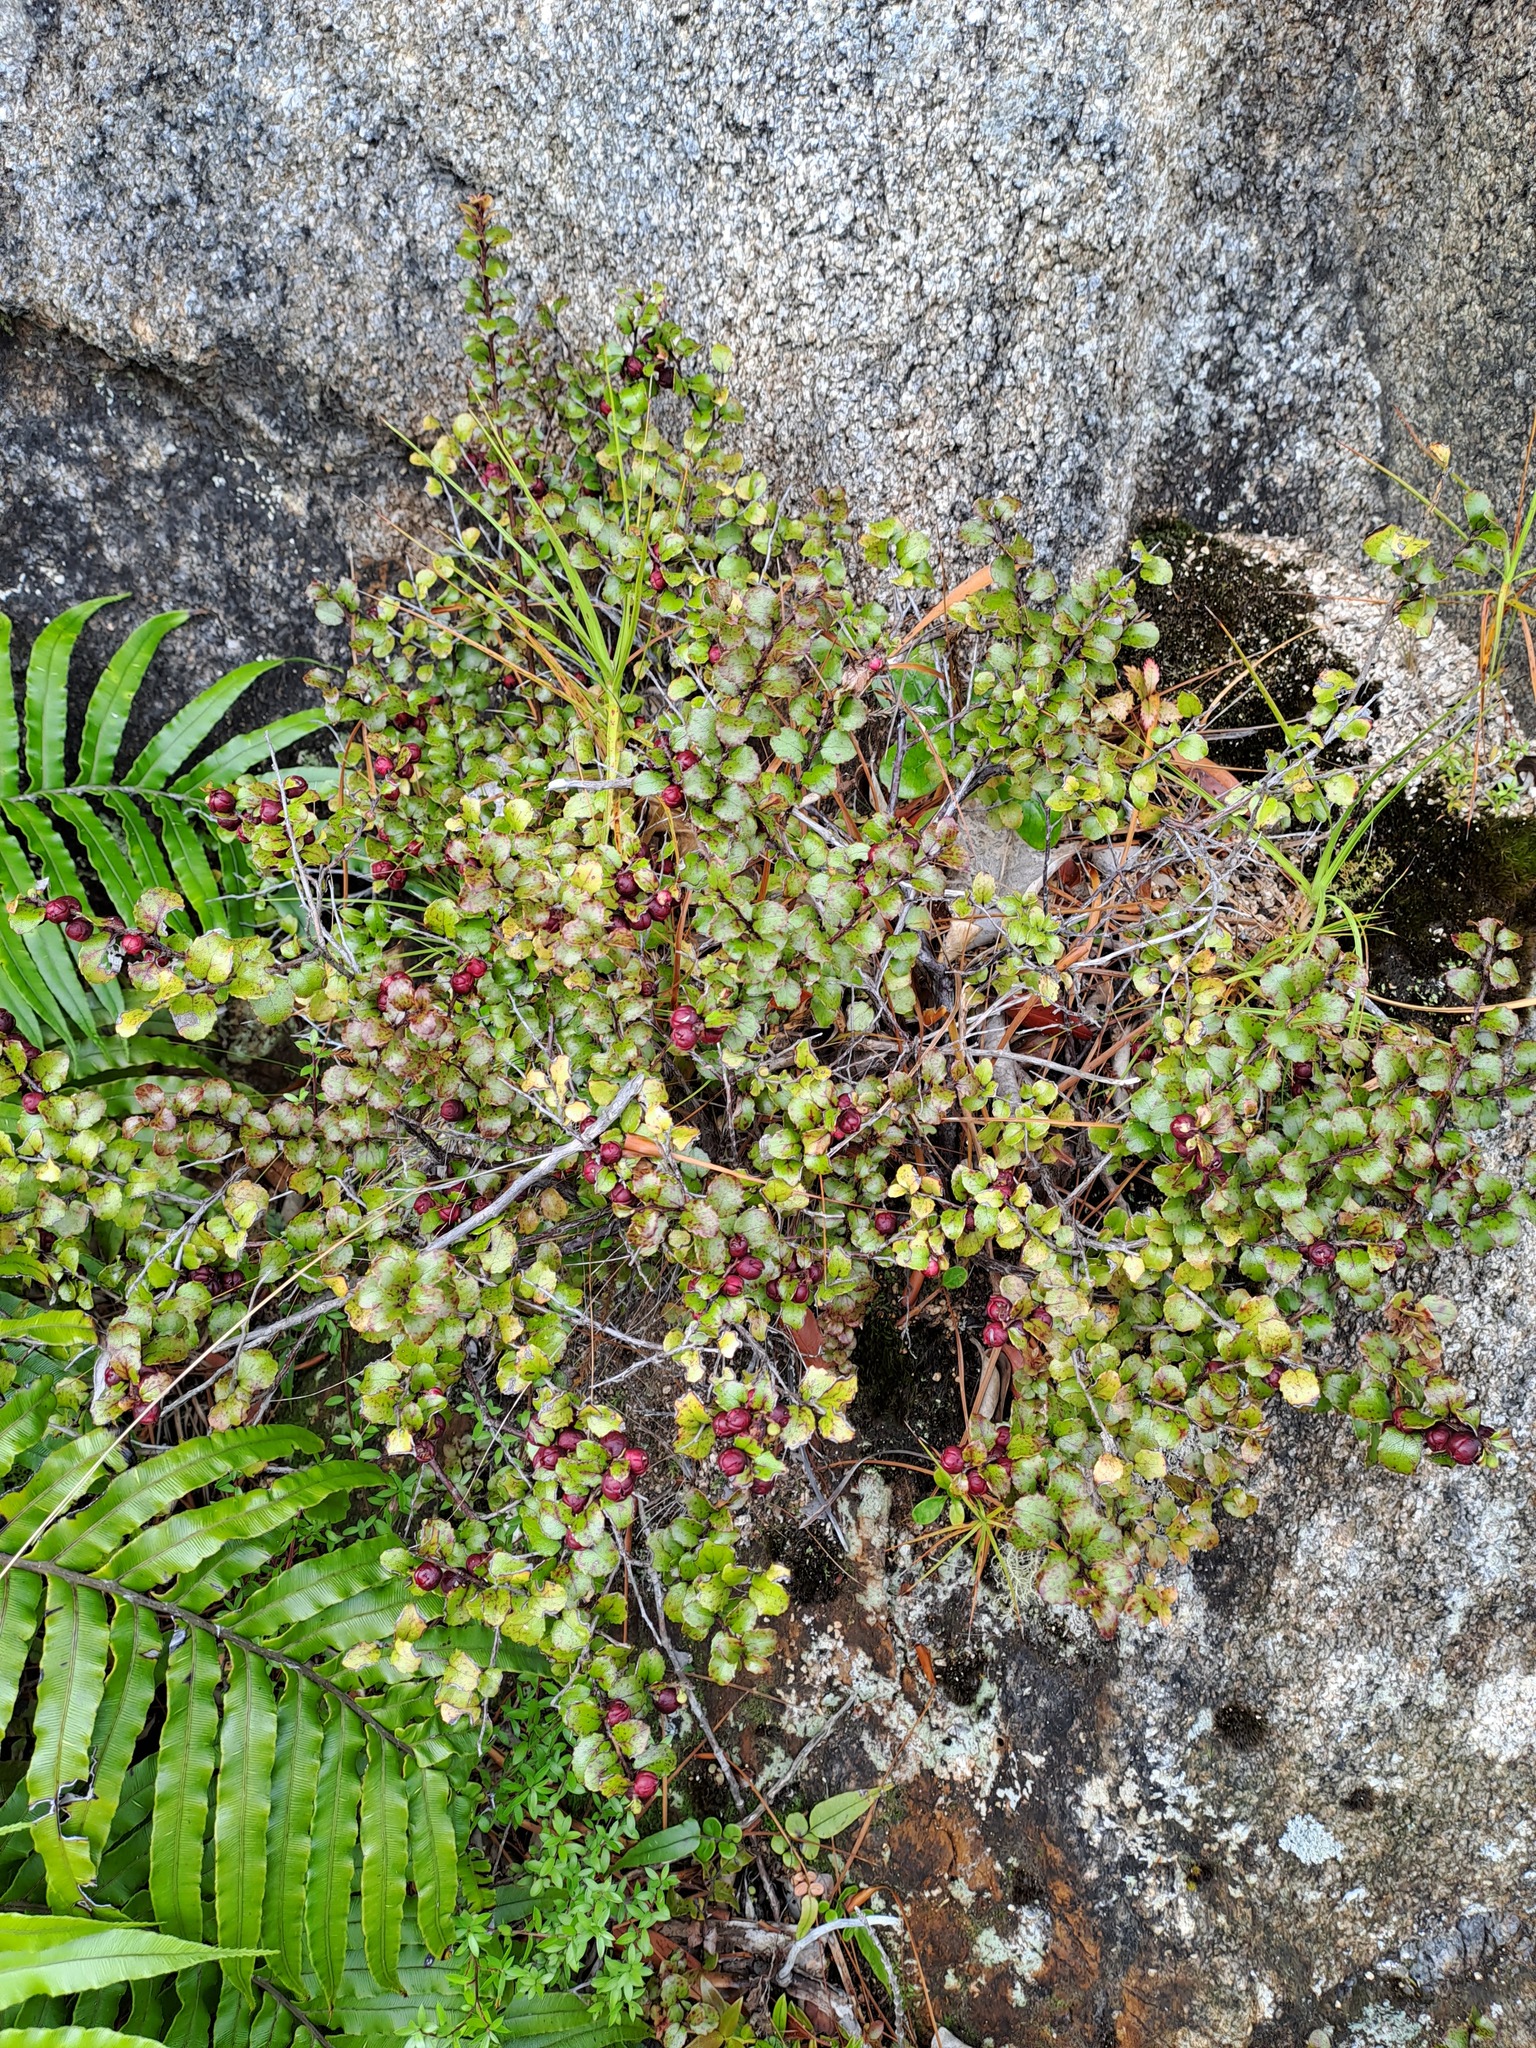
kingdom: Plantae
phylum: Tracheophyta
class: Magnoliopsida
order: Ericales
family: Ericaceae
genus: Gaultheria
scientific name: Gaultheria antipoda
